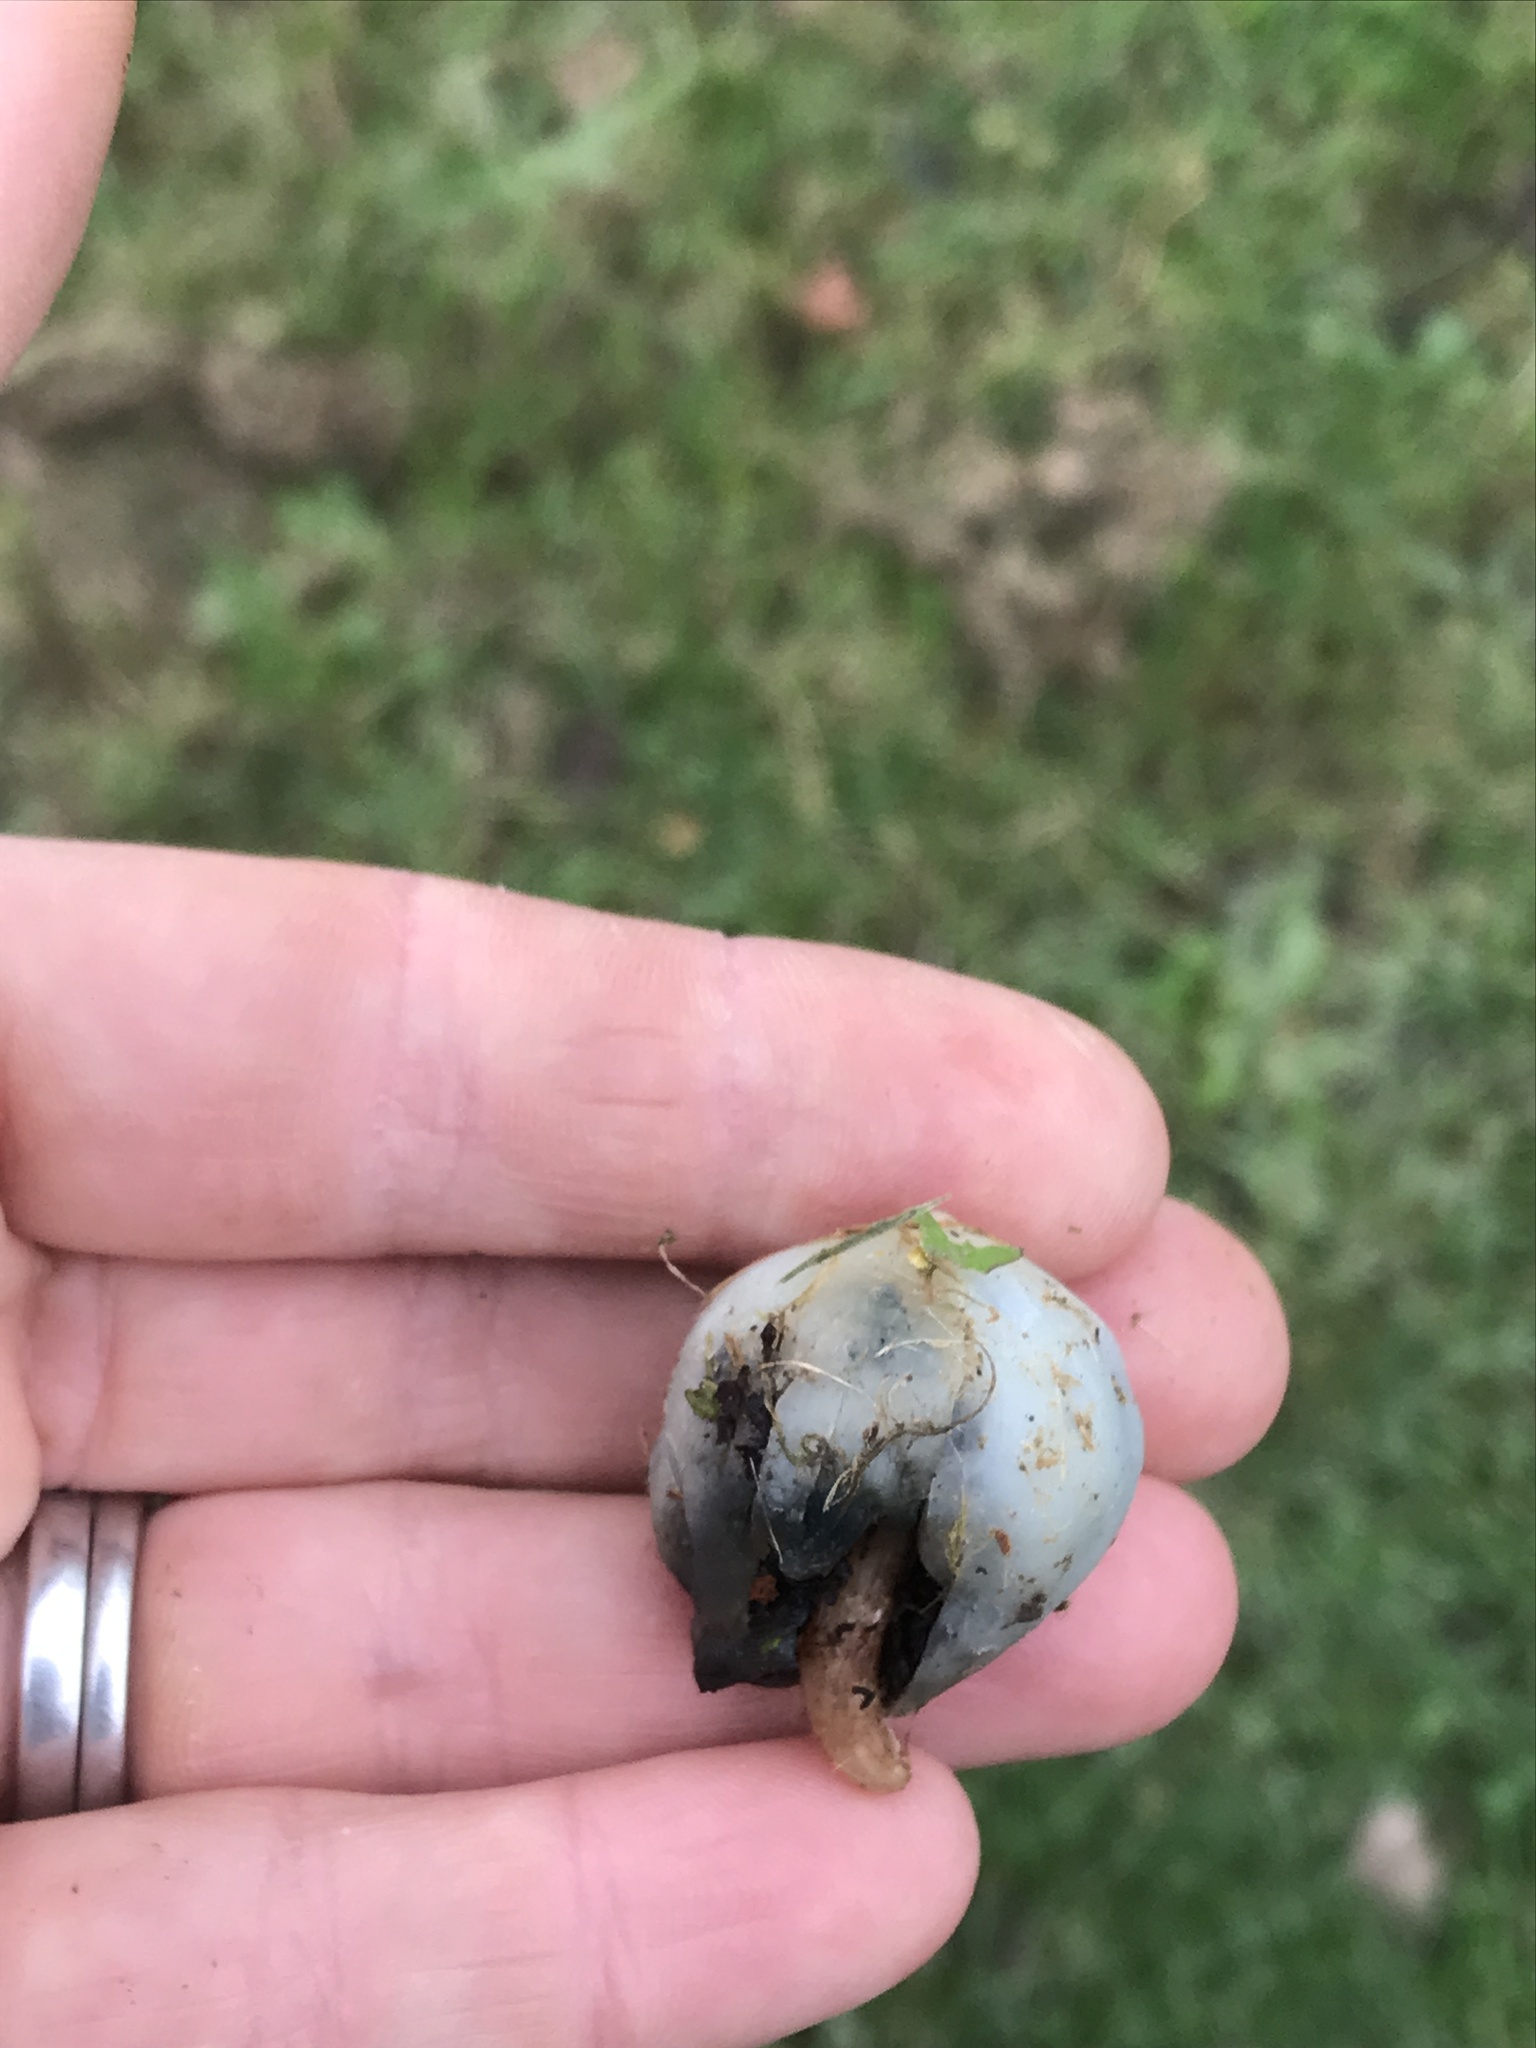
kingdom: Fungi
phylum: Basidiomycota
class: Agaricomycetes
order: Agaricales
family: Hymenogastraceae
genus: Psilocybe
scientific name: Psilocybe weraroa
